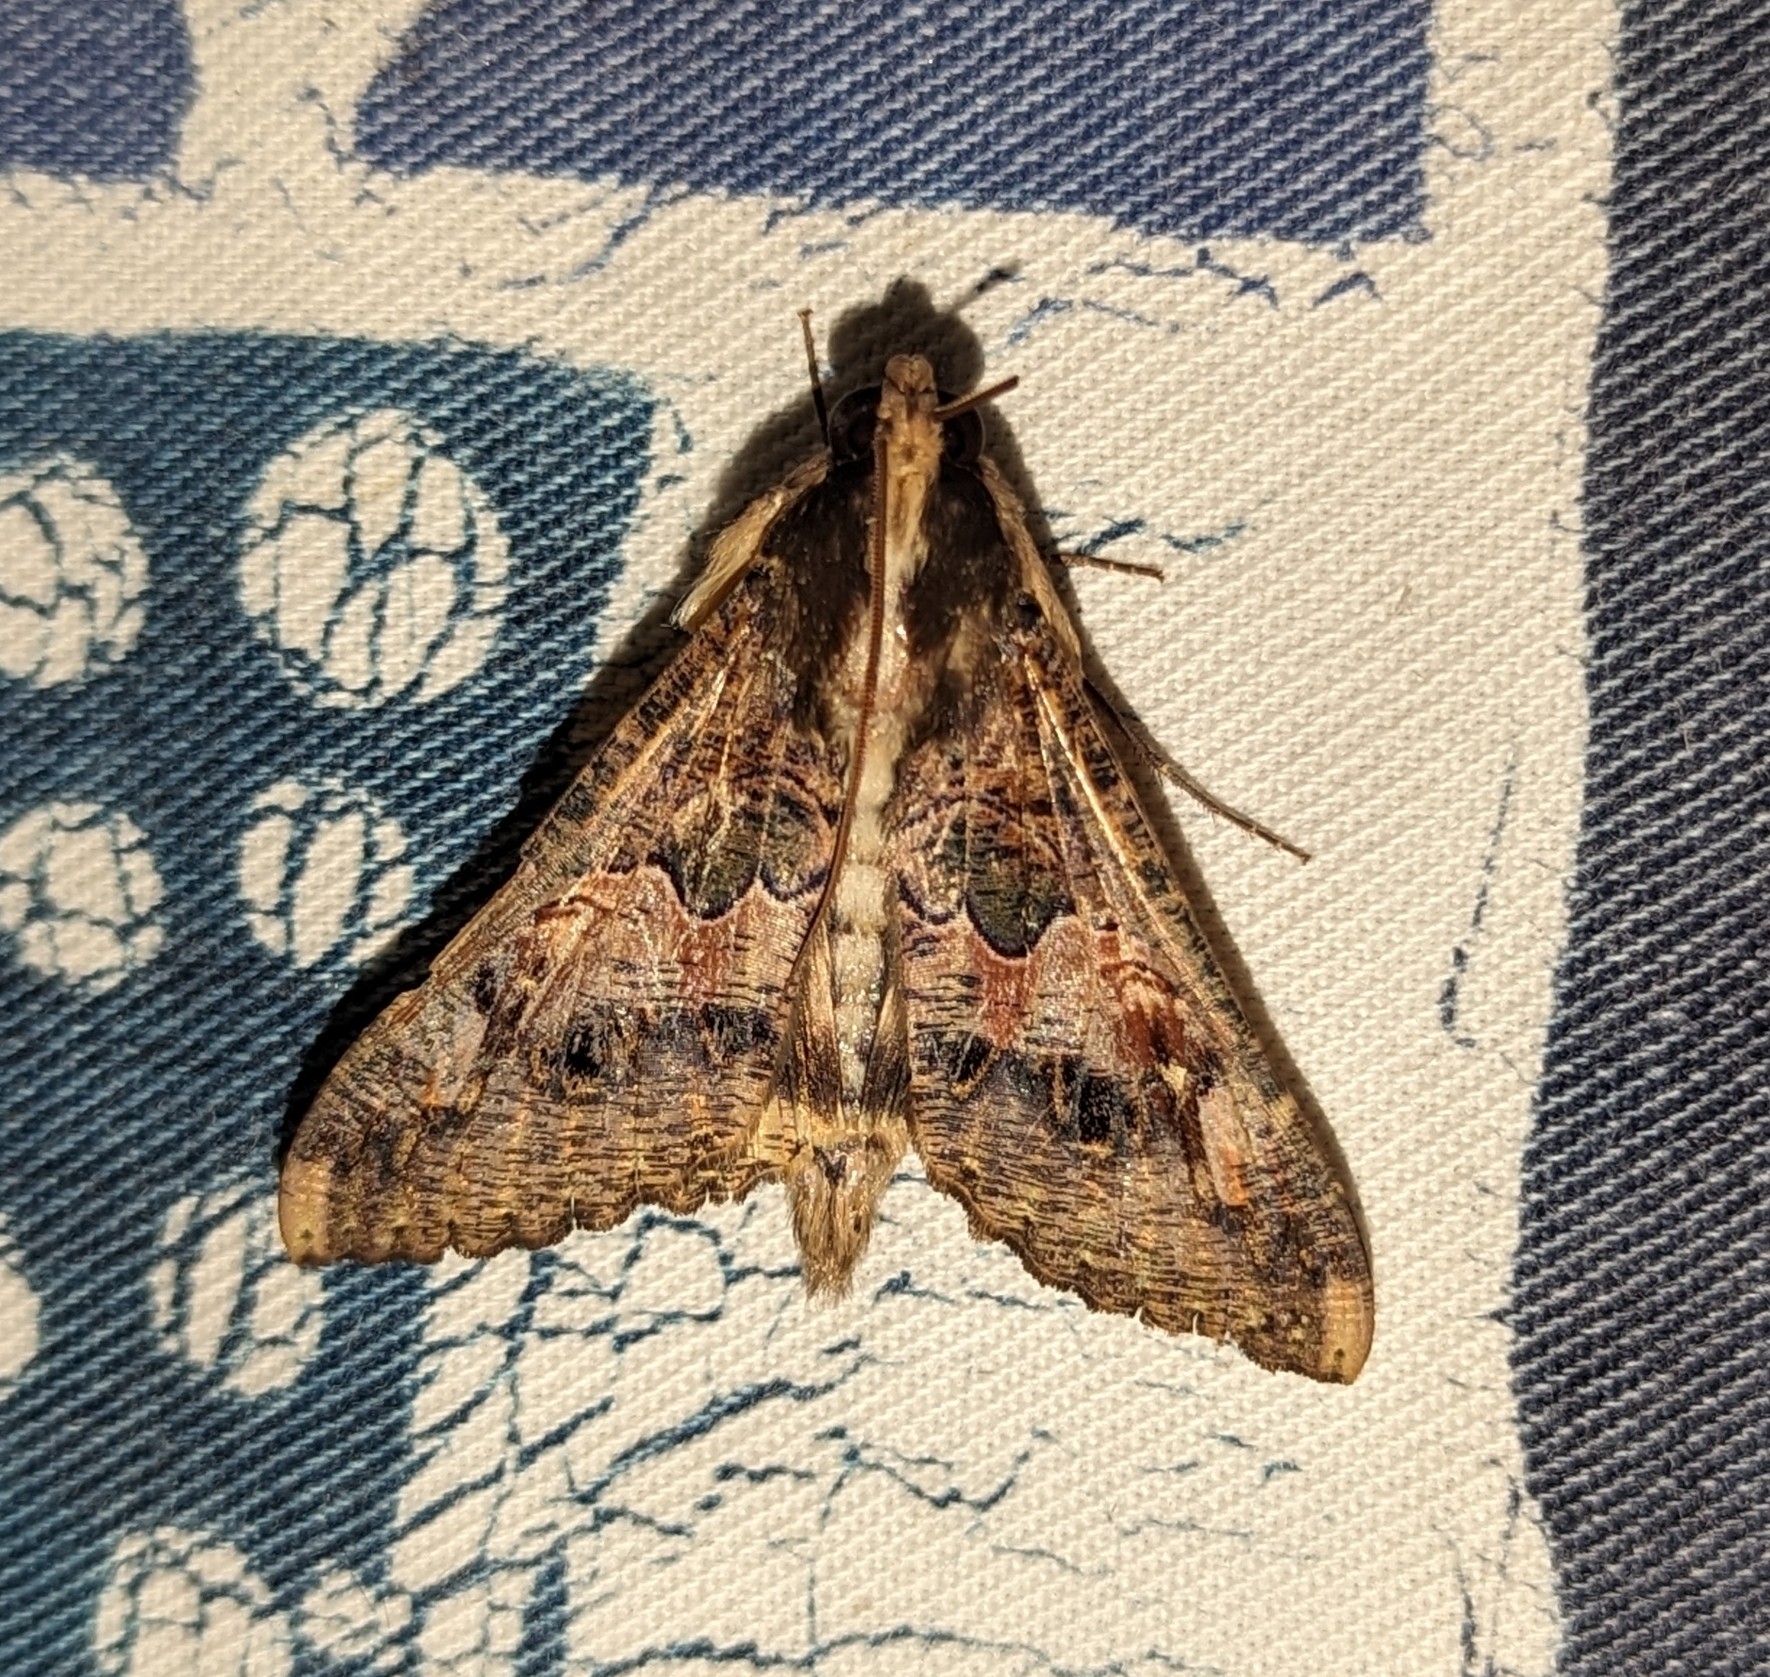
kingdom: Animalia
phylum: Arthropoda
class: Insecta
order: Lepidoptera
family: Erebidae
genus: Sphingomorpha
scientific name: Sphingomorpha chlorea
